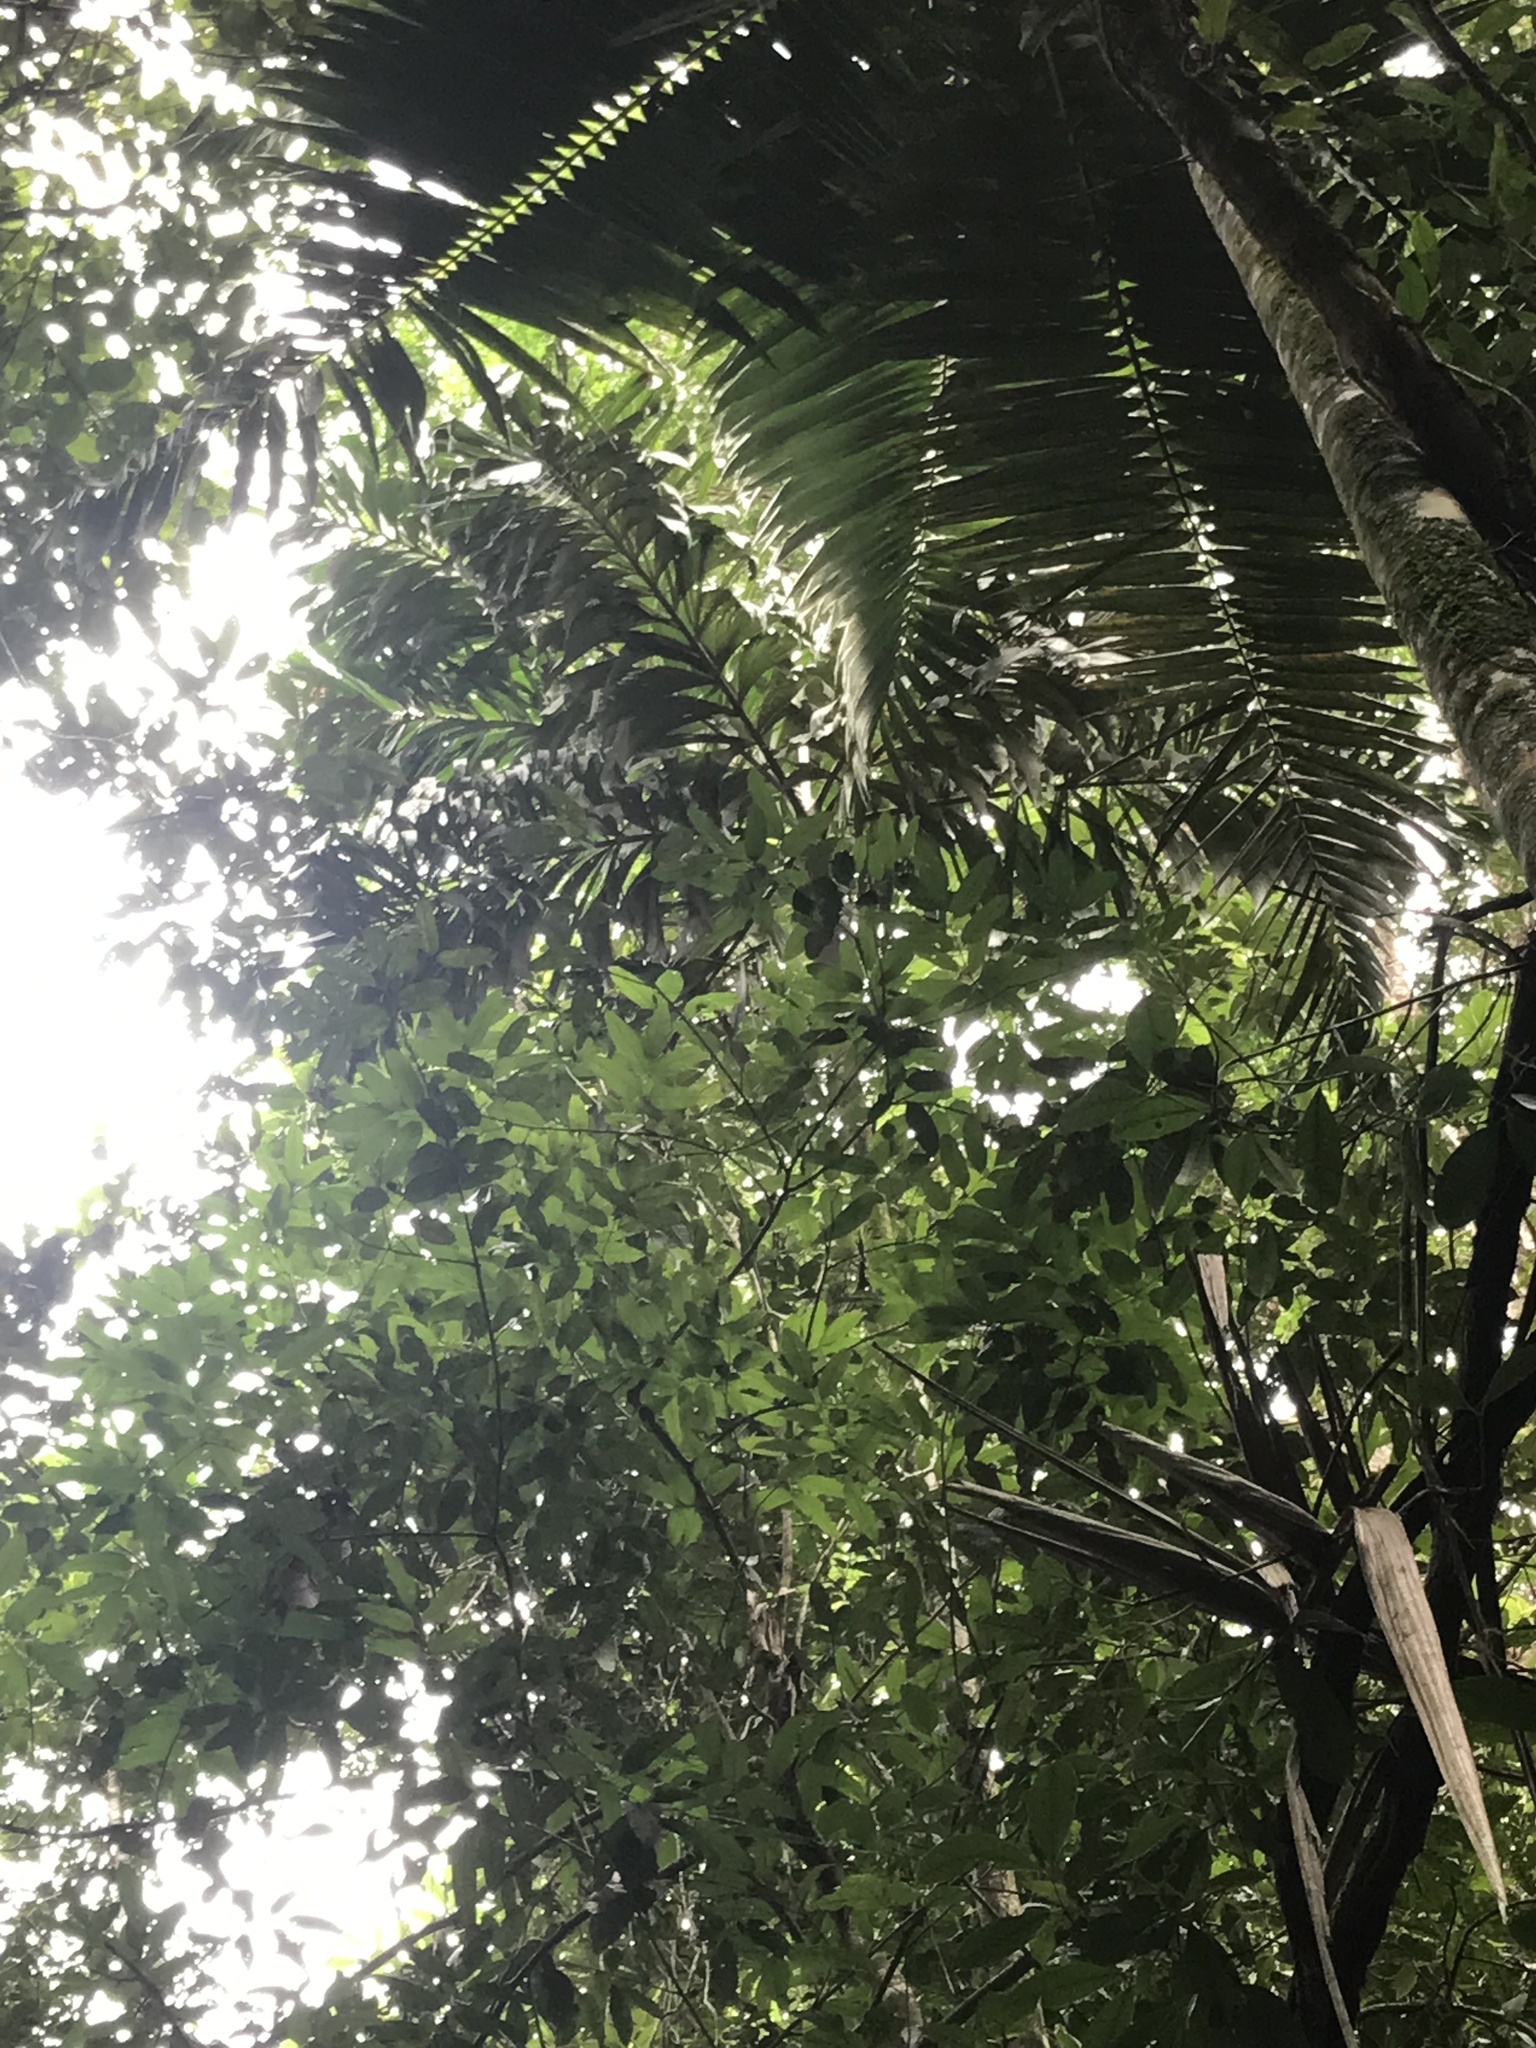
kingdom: Plantae
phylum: Tracheophyta
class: Liliopsida
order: Arecales
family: Arecaceae
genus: Socratea
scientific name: Socratea exorrhiza
